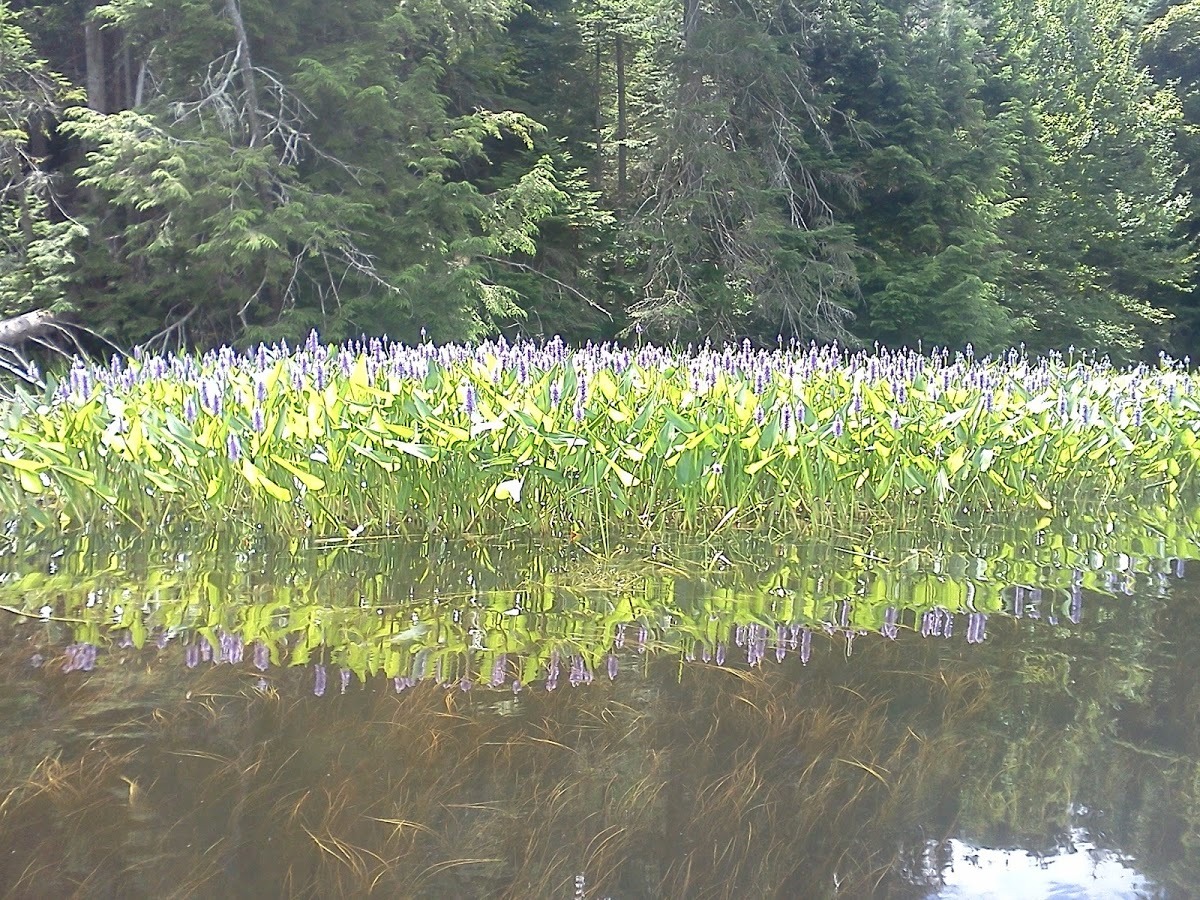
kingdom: Plantae
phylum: Tracheophyta
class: Liliopsida
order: Commelinales
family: Pontederiaceae
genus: Pontederia
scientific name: Pontederia cordata
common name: Pickerelweed
